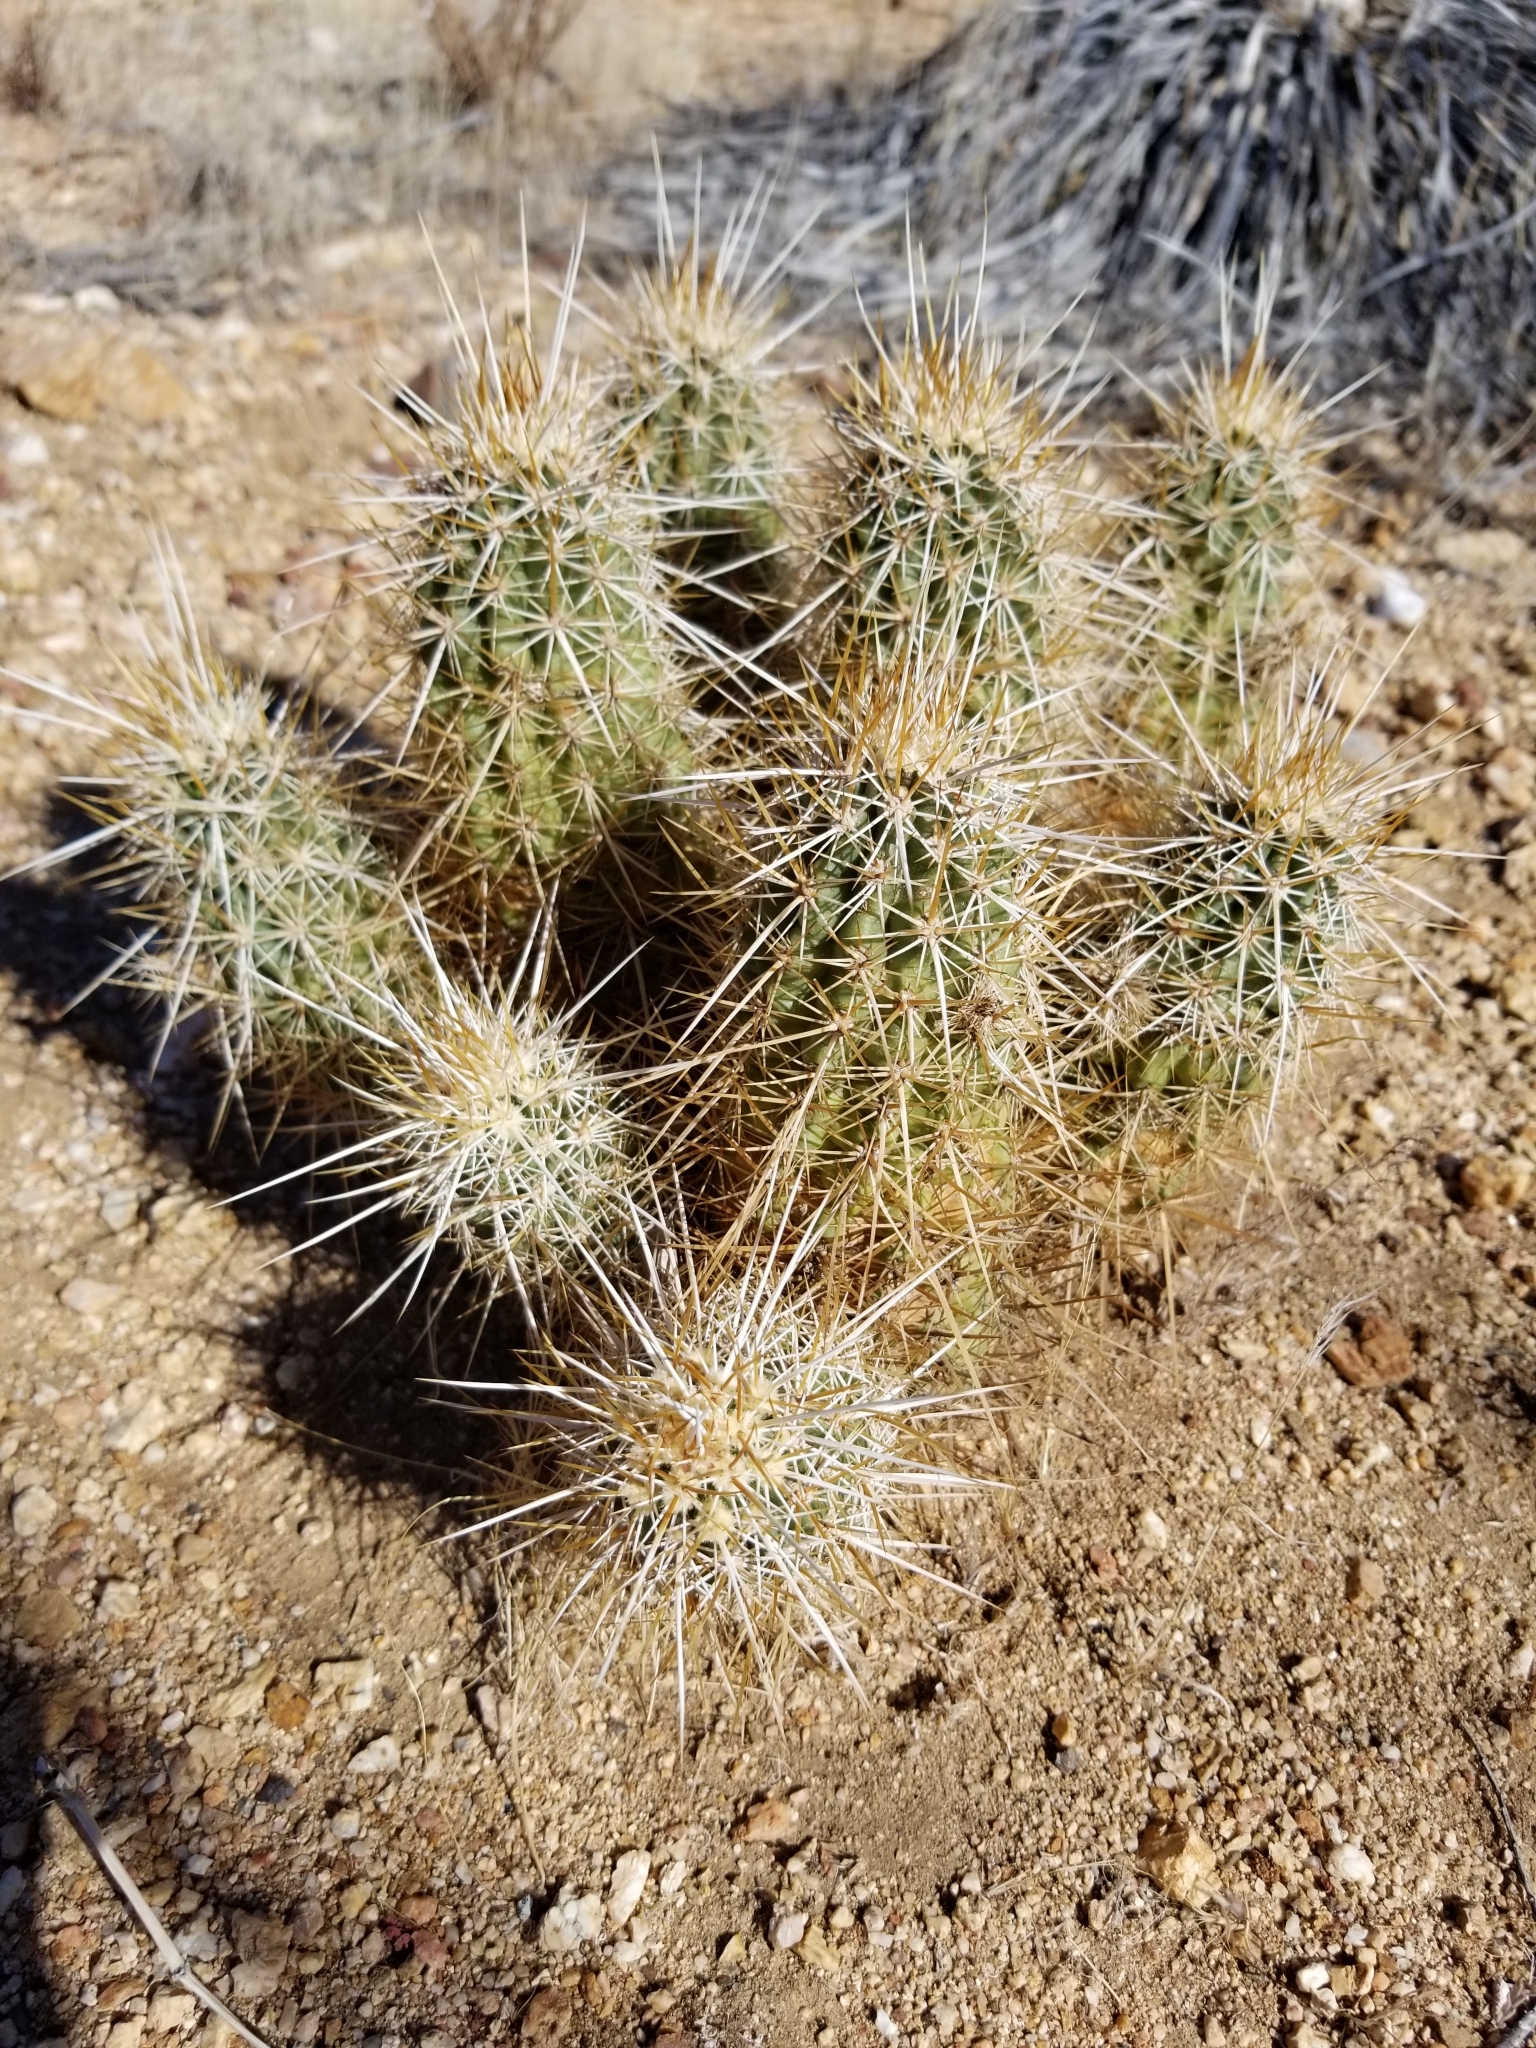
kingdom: Plantae
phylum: Tracheophyta
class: Magnoliopsida
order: Caryophyllales
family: Cactaceae
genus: Echinocereus
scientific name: Echinocereus engelmannii
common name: Engelmann's hedgehog cactus
